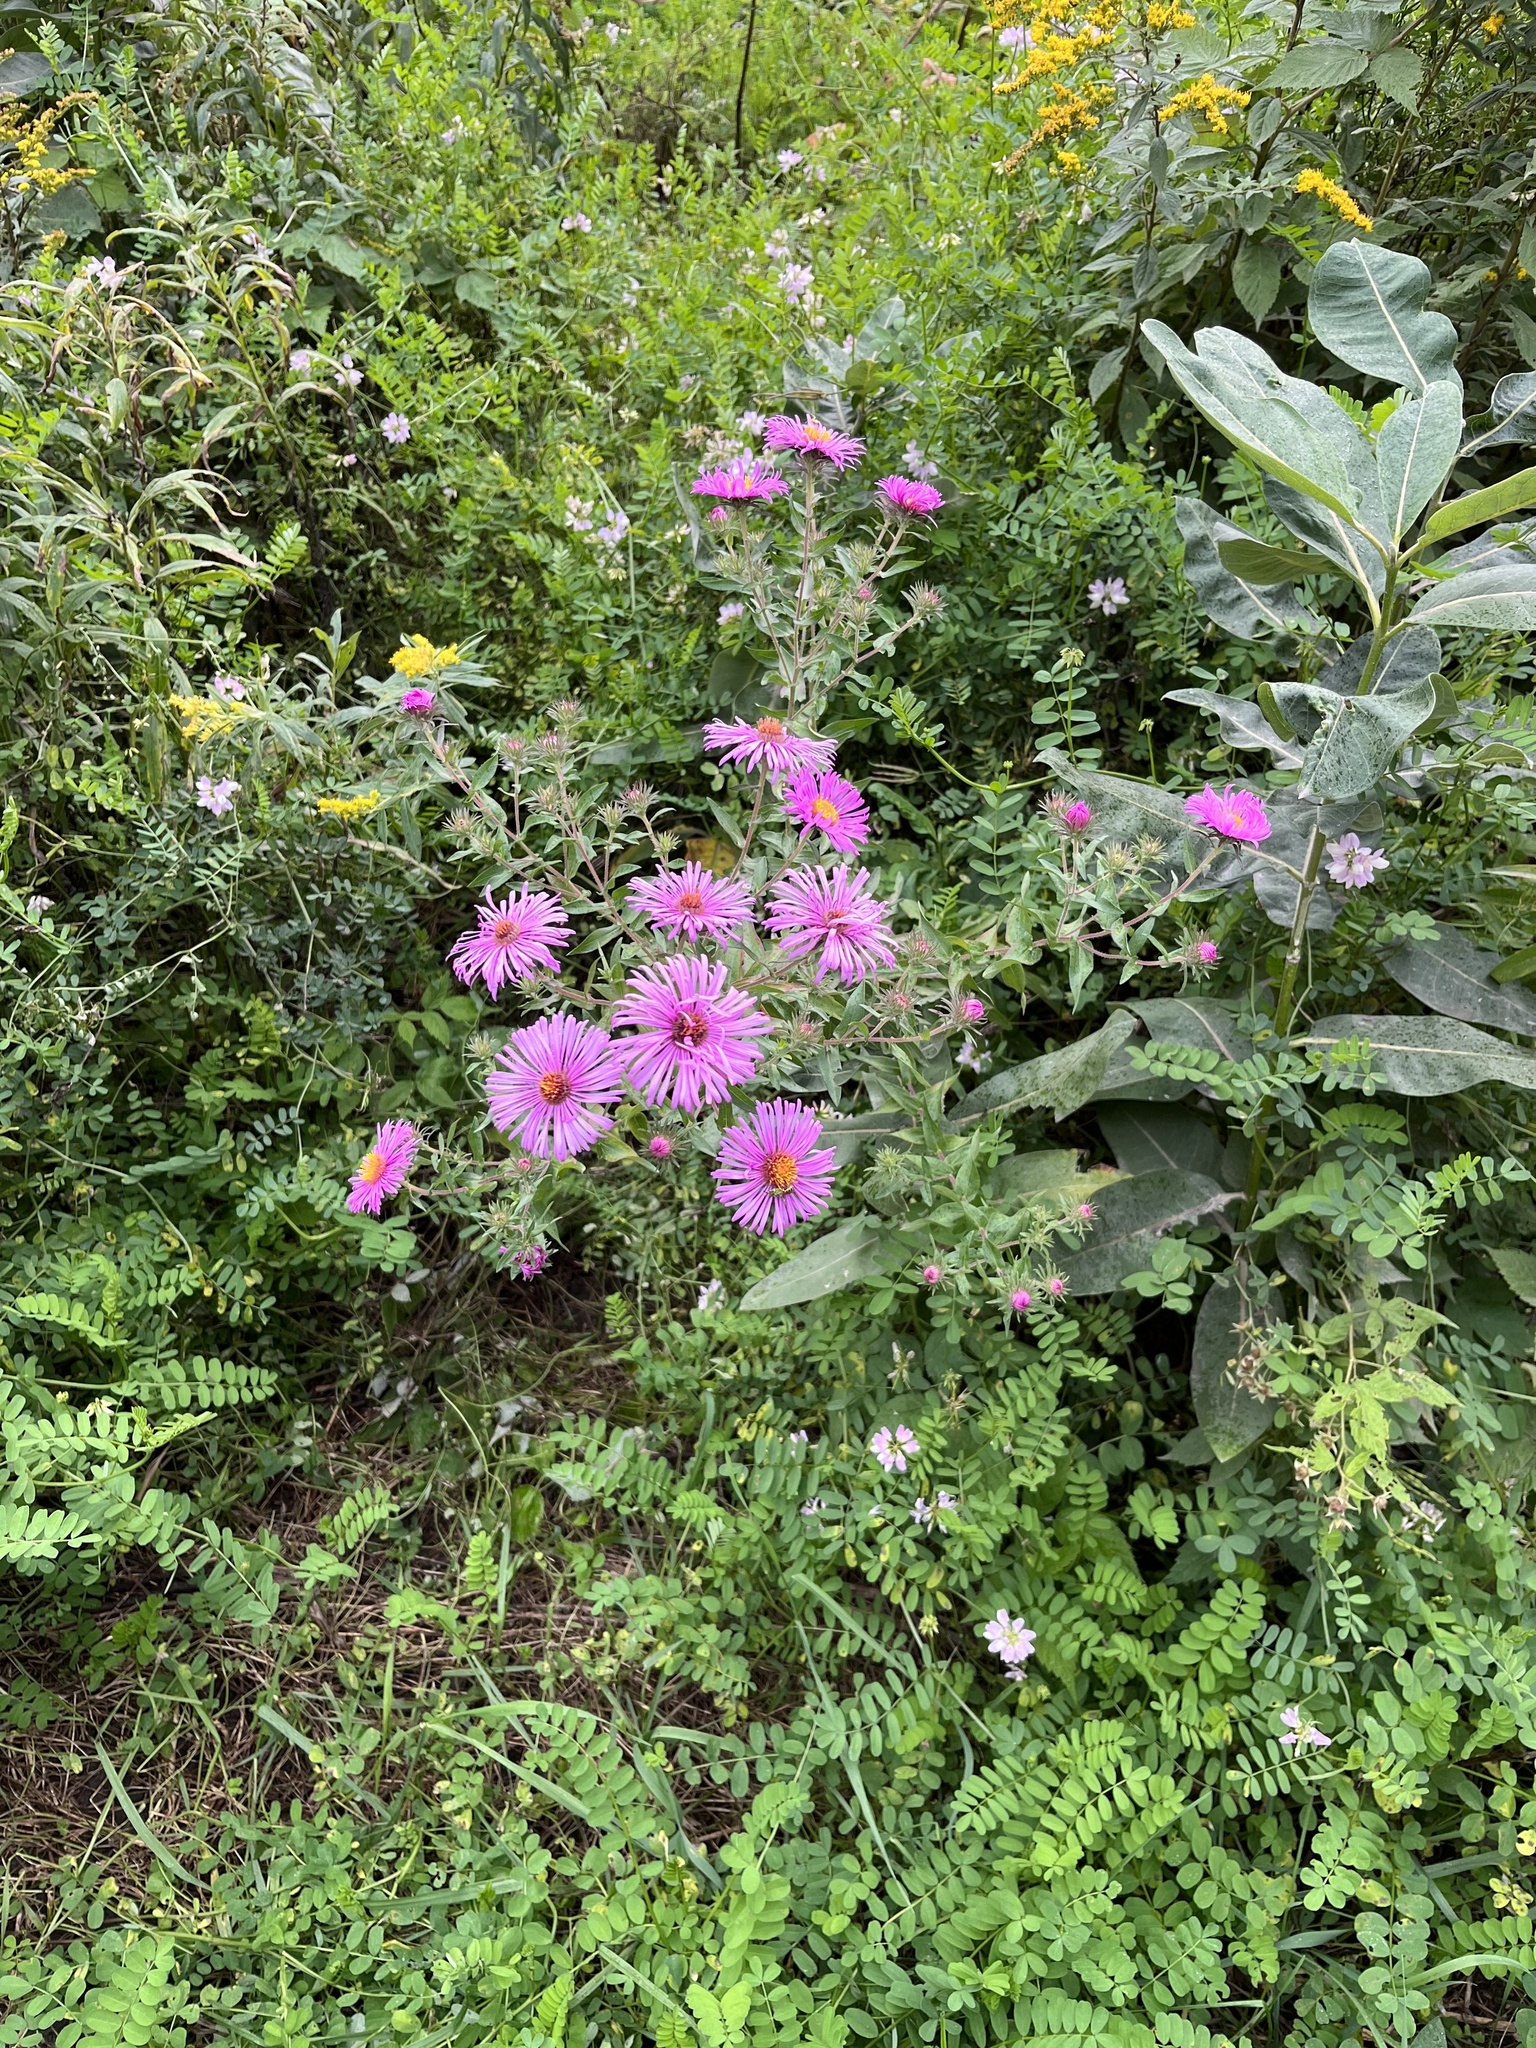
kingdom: Plantae
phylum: Tracheophyta
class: Magnoliopsida
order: Asterales
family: Asteraceae
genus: Symphyotrichum
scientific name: Symphyotrichum novae-angliae
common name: Michaelmas daisy
